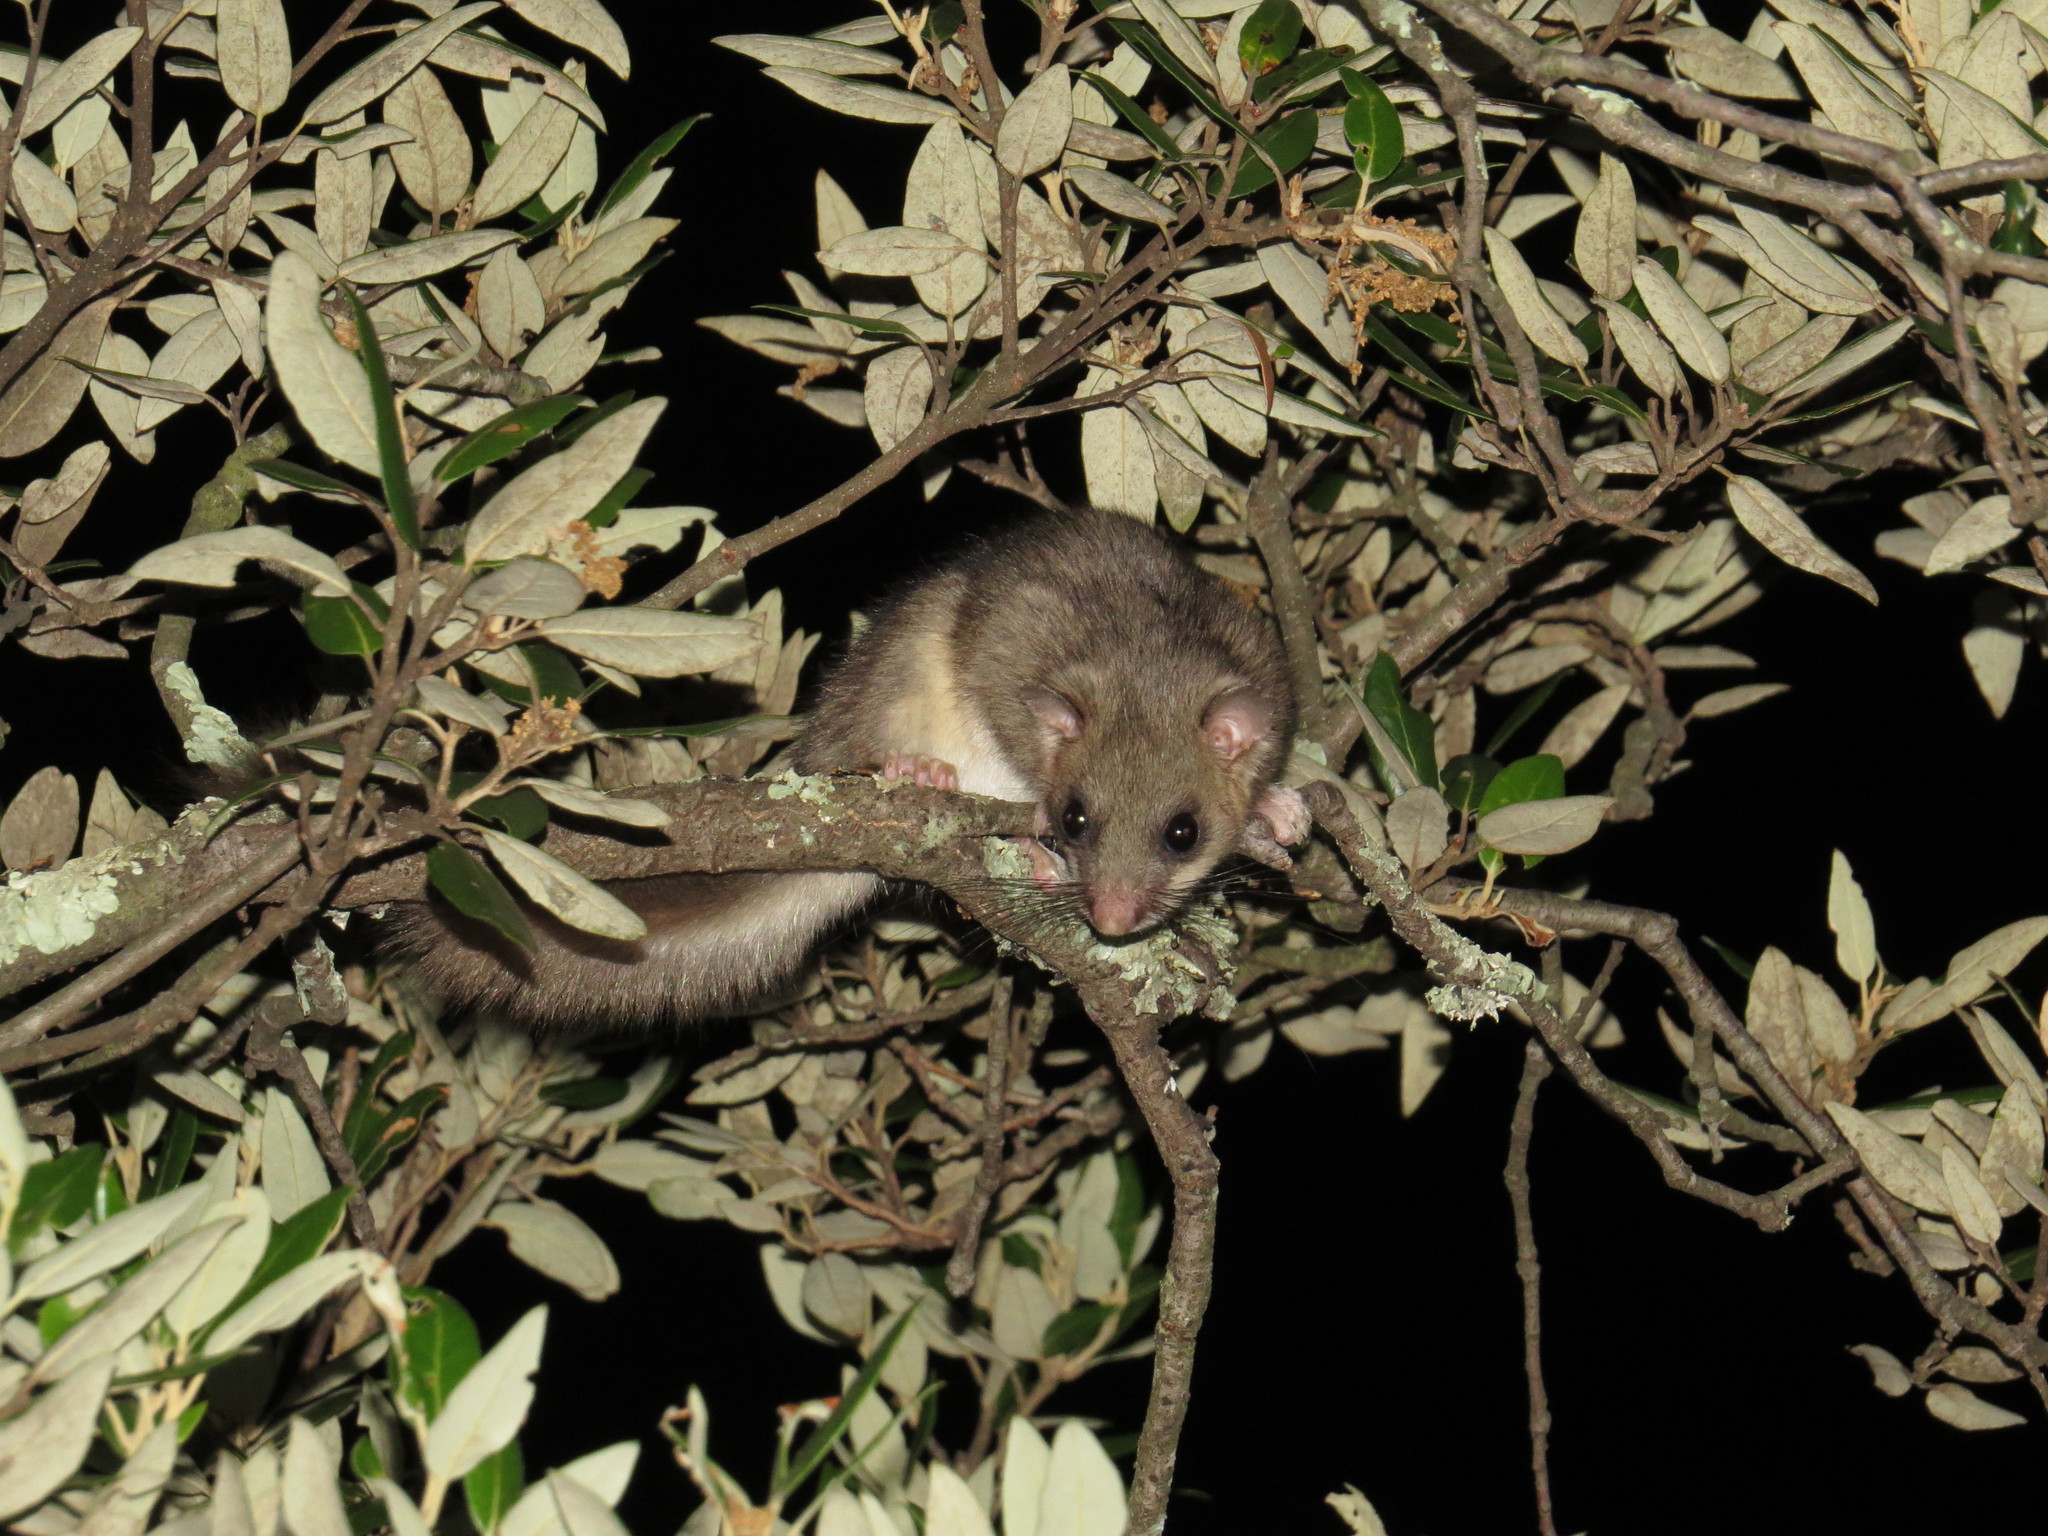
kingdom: Animalia
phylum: Chordata
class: Mammalia
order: Rodentia
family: Gliridae
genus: Glis
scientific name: Glis glis
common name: Fat dormouse
